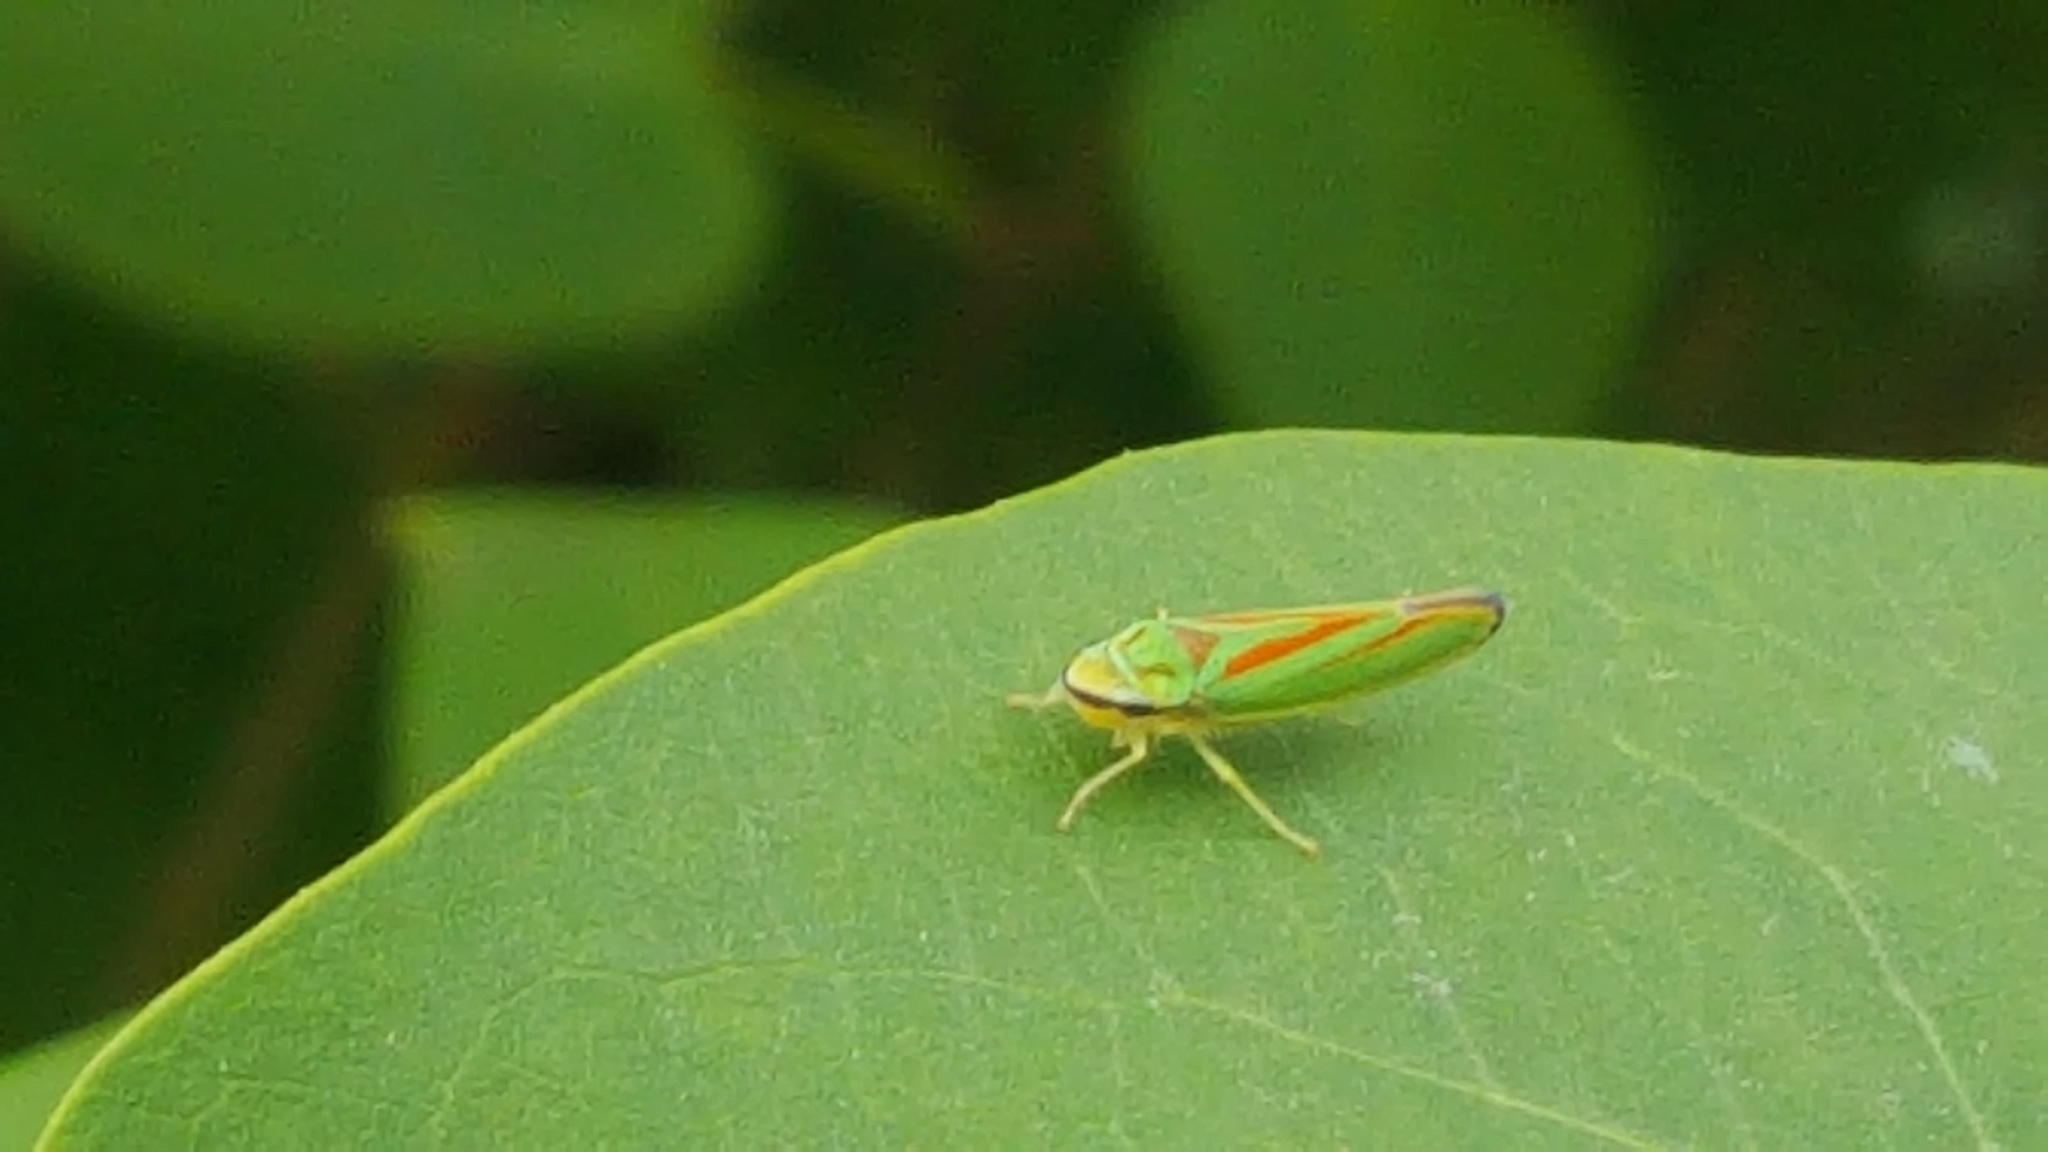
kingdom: Animalia
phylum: Arthropoda
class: Insecta
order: Hemiptera
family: Cicadellidae
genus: Graphocephala
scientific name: Graphocephala fennahi
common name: Rhododendron leafhopper
